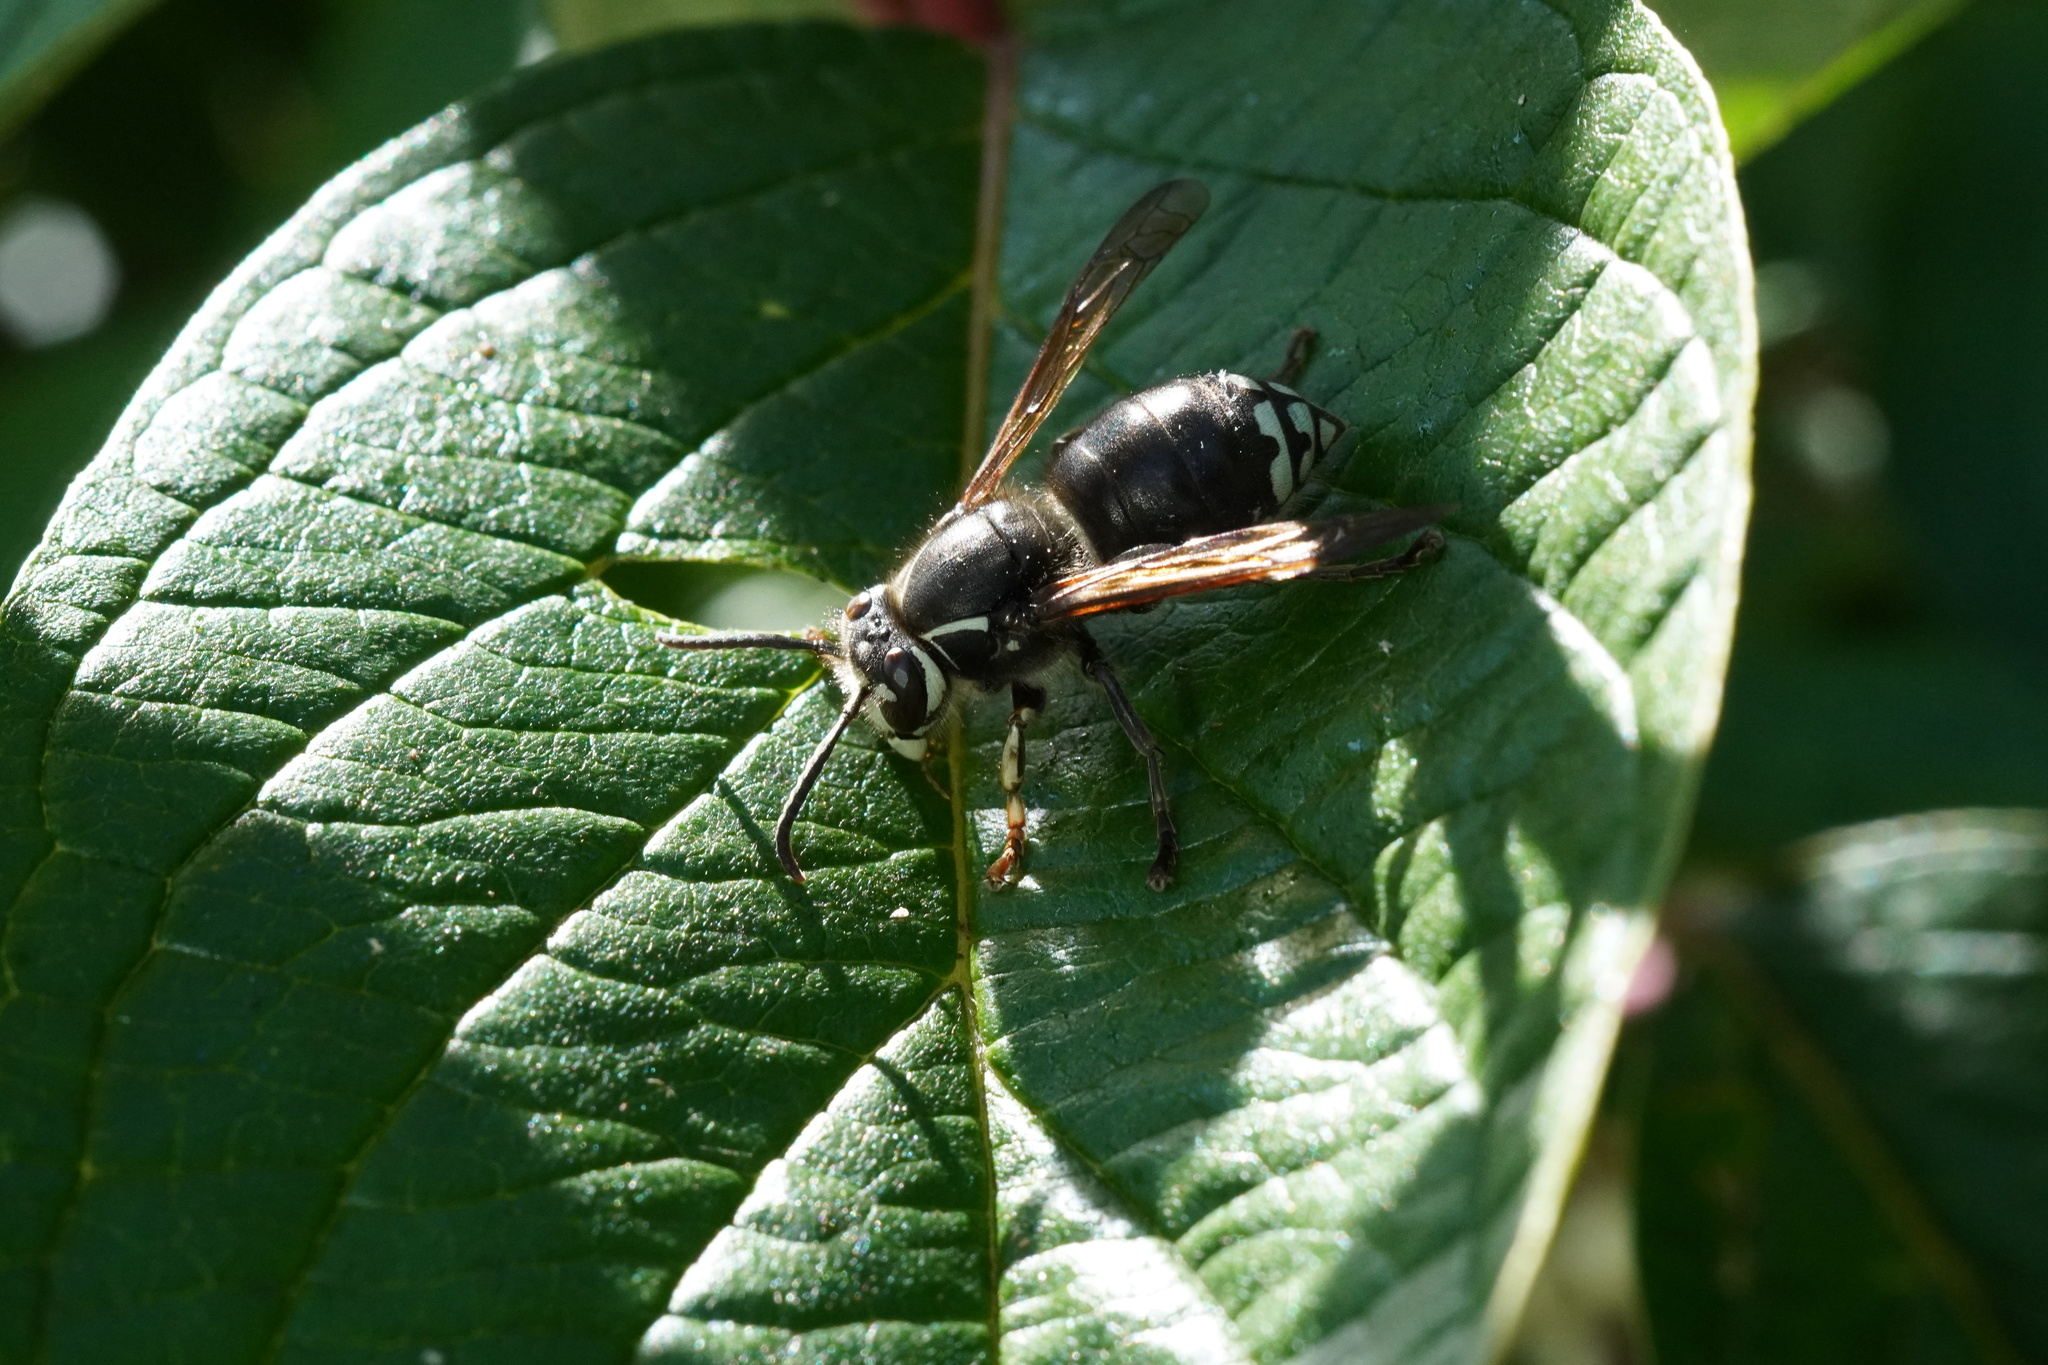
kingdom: Animalia
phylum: Arthropoda
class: Insecta
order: Hymenoptera
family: Vespidae
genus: Dolichovespula
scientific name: Dolichovespula maculata
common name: Bald-faced hornet
